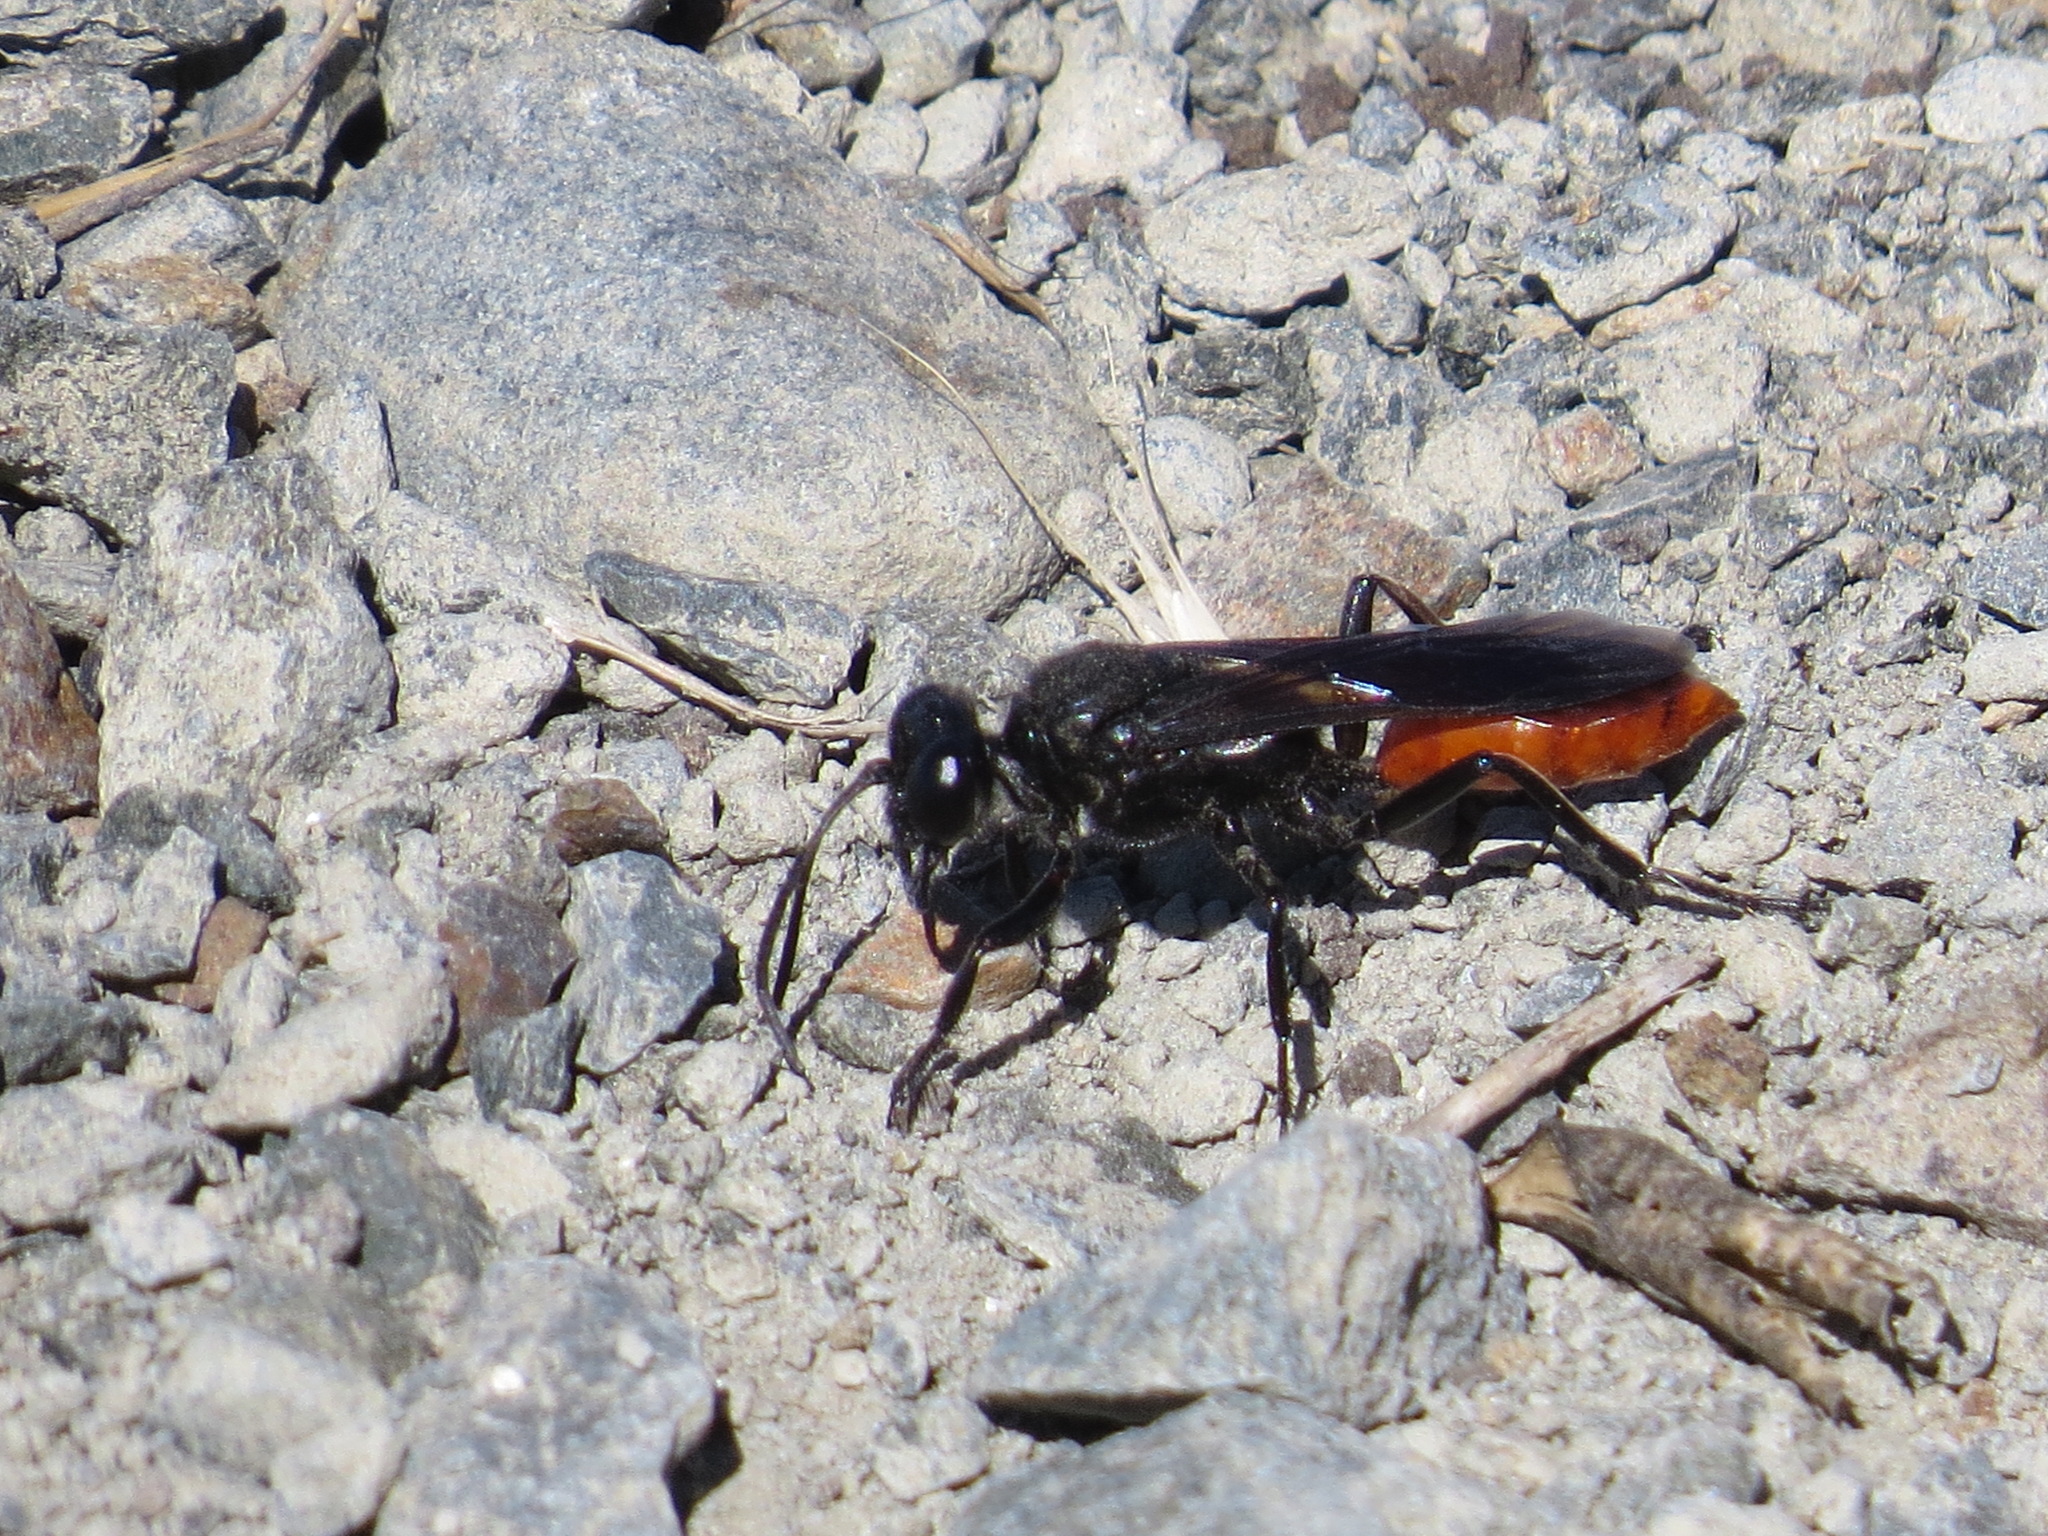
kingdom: Animalia
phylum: Arthropoda
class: Insecta
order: Hymenoptera
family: Sphecidae
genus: Sphex
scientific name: Sphex lucae
